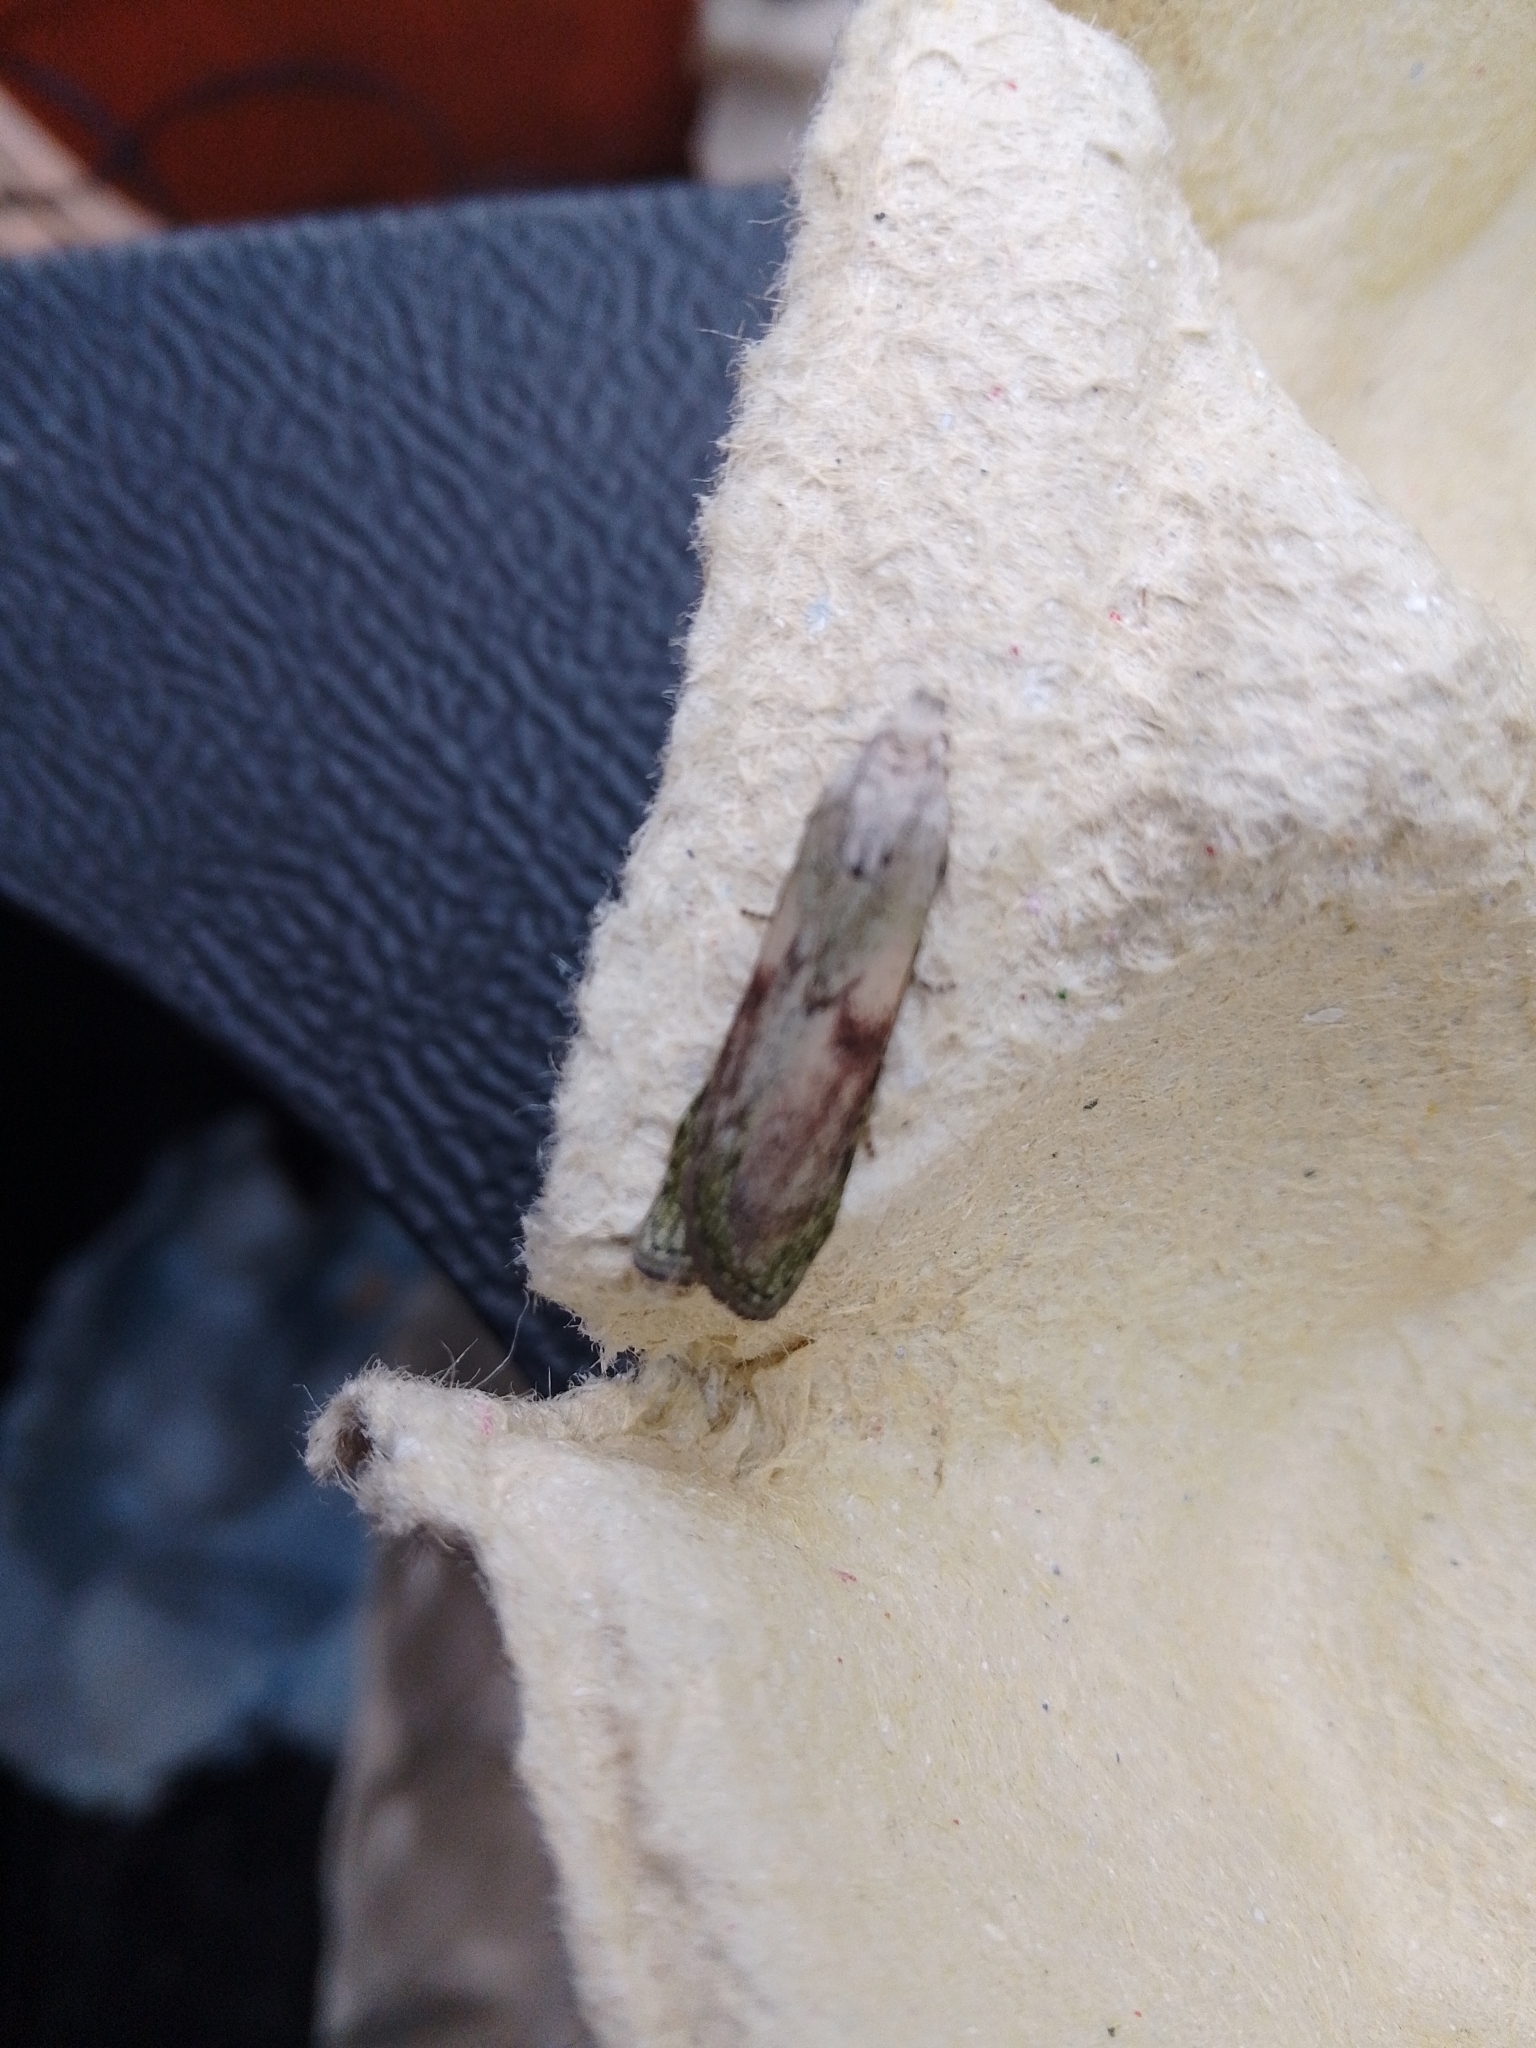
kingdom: Animalia
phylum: Arthropoda
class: Insecta
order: Lepidoptera
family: Pyralidae
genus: Aphomia
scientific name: Aphomia sociella
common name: Bee moth
